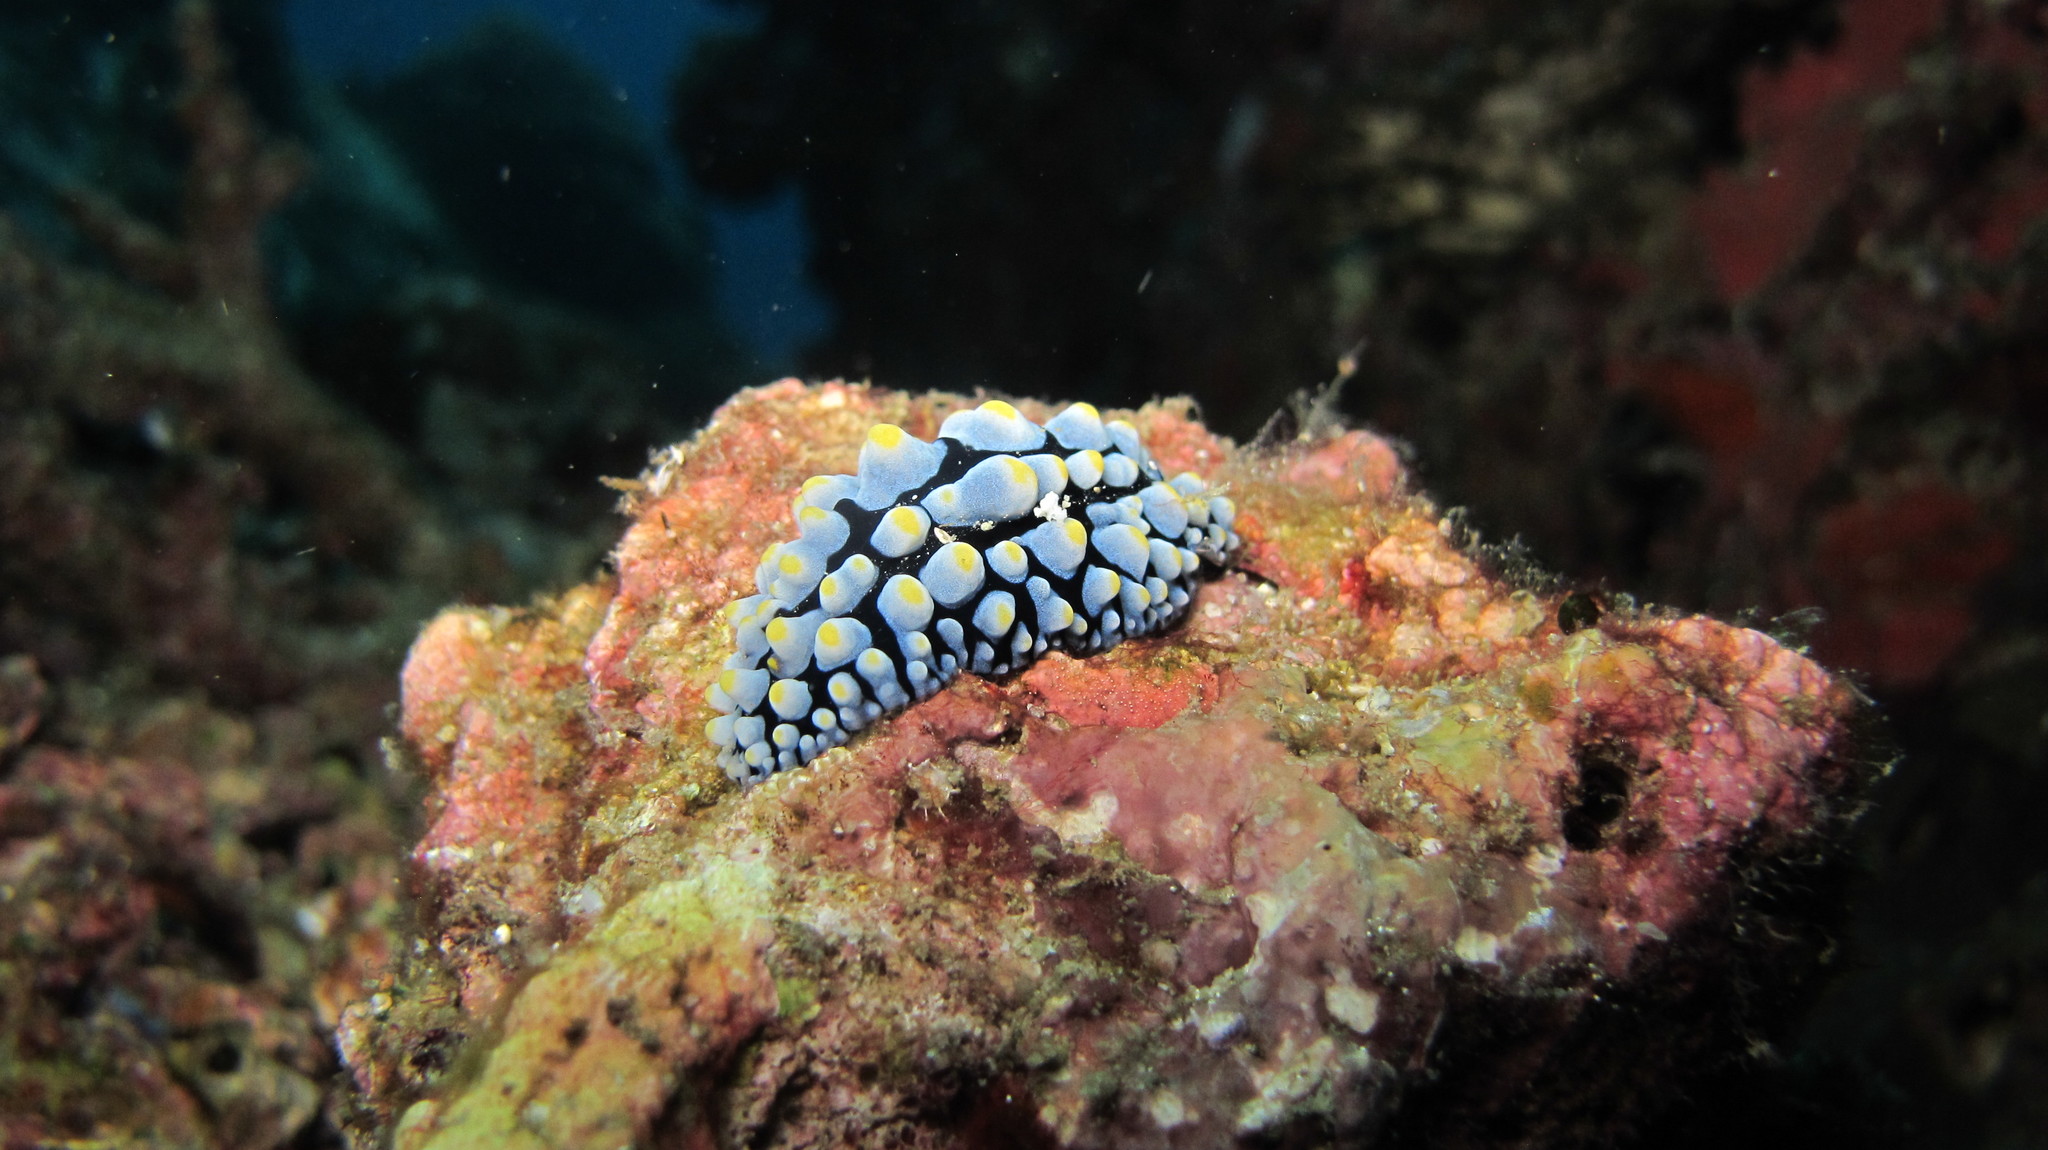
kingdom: Animalia
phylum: Mollusca
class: Gastropoda
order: Nudibranchia
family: Phyllidiidae
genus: Phyllidia
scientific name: Phyllidia varicosa
